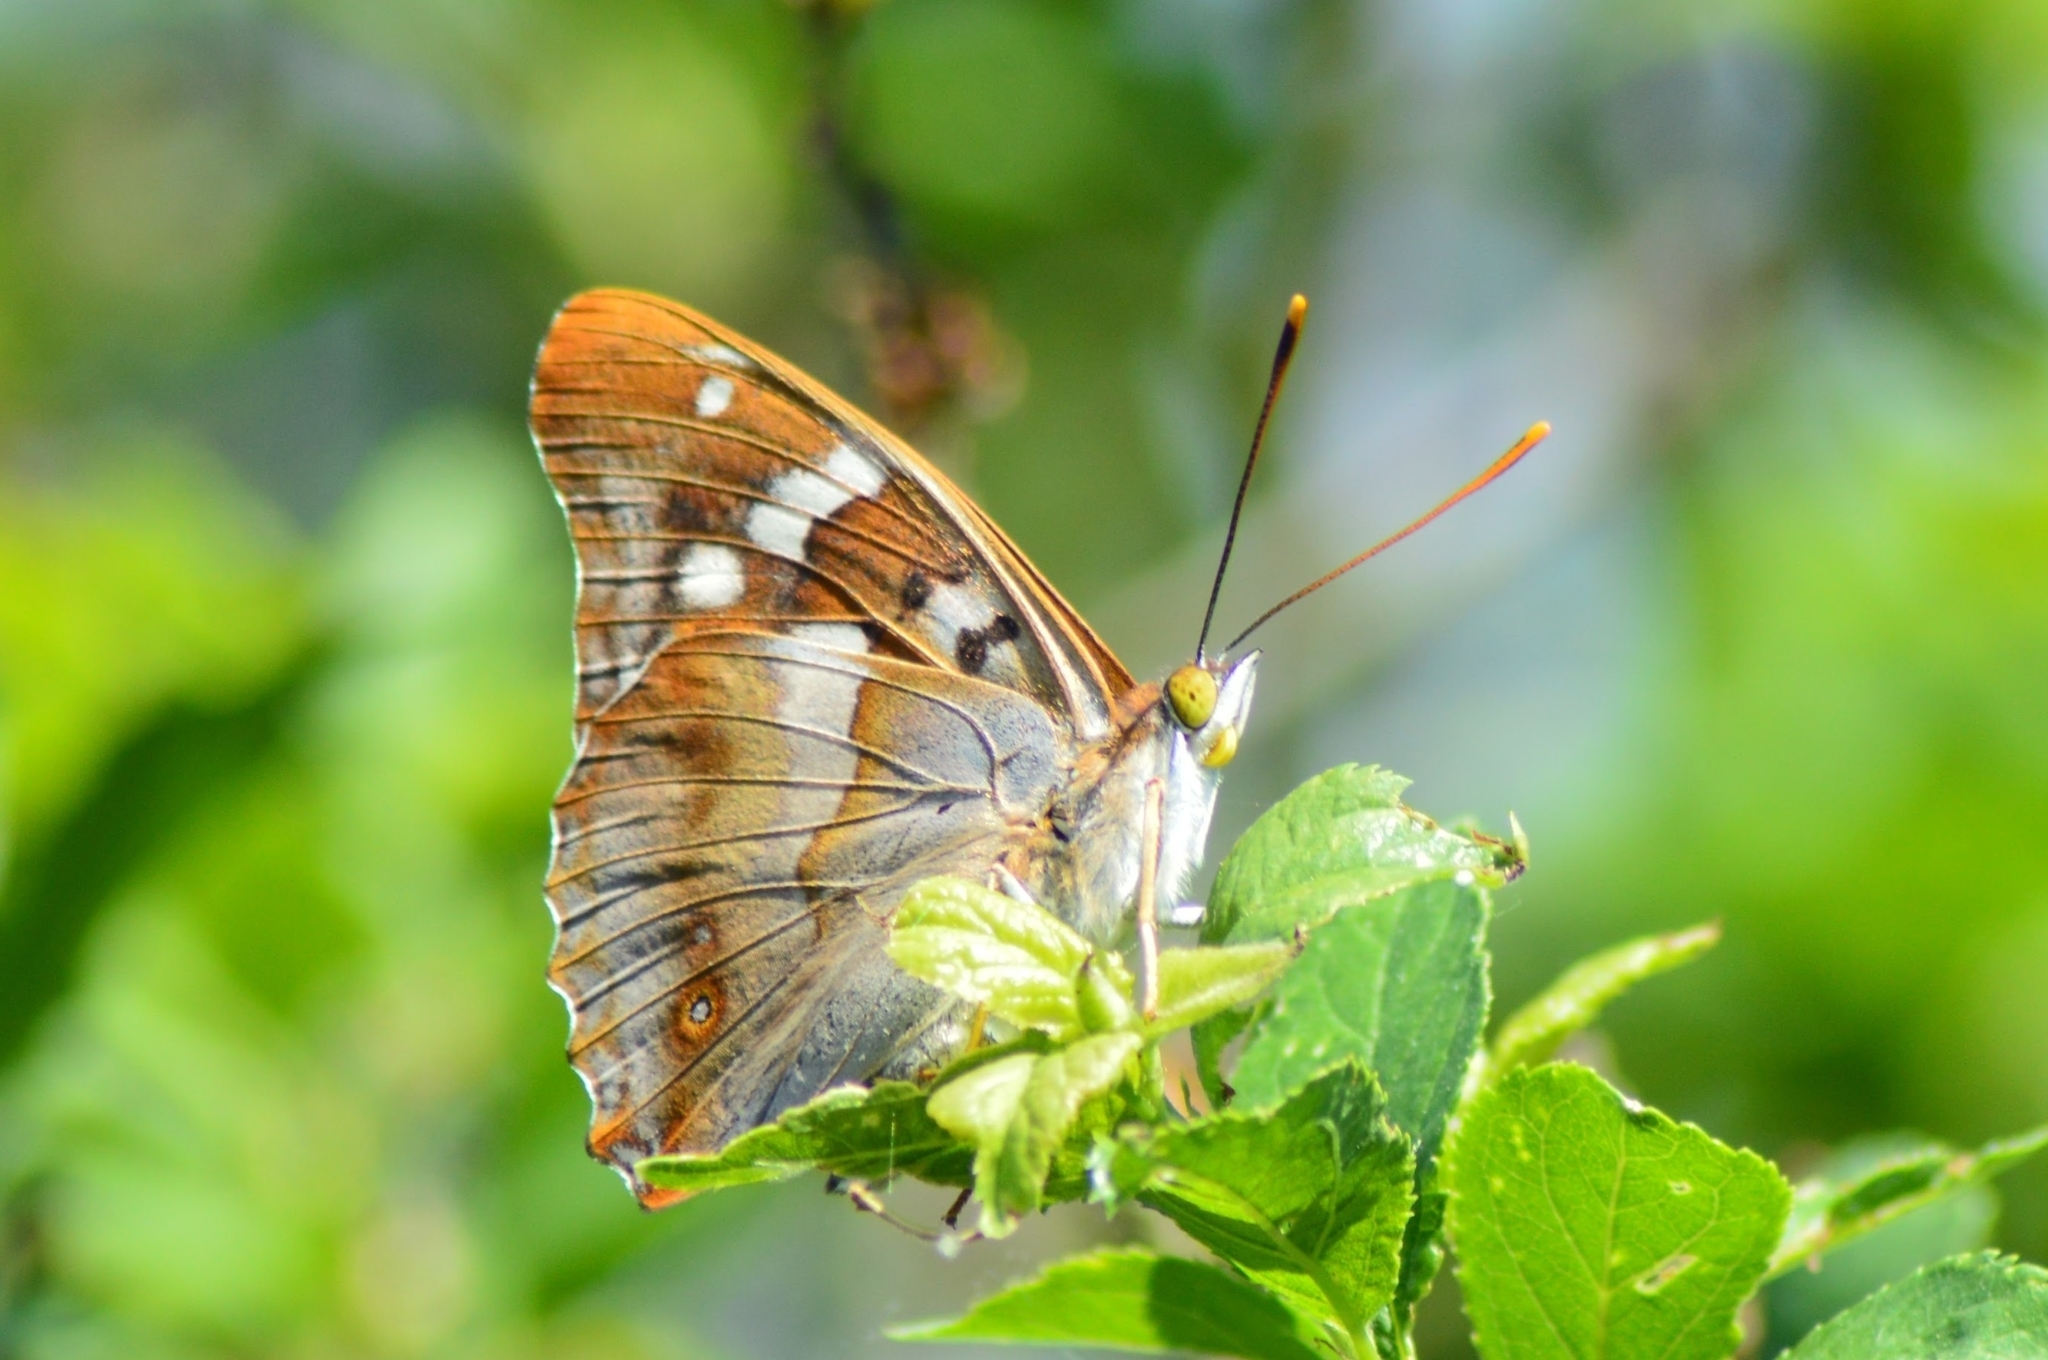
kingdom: Animalia
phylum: Arthropoda
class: Insecta
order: Lepidoptera
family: Nymphalidae
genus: Apatura
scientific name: Apatura ilia
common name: Lesser purple emperor
